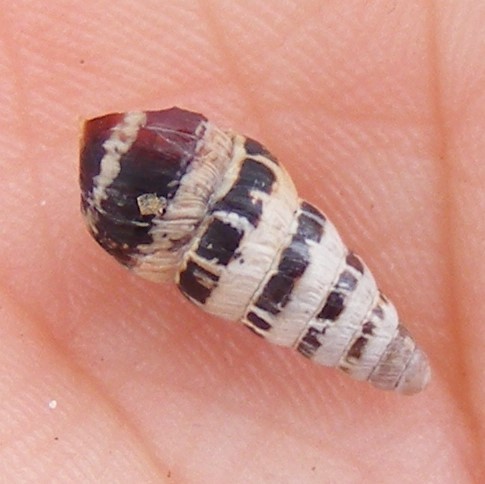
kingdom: Animalia
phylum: Mollusca
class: Gastropoda
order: Stylommatophora
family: Geomitridae
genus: Cochlicella
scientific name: Cochlicella acuta
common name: Pointed snail
